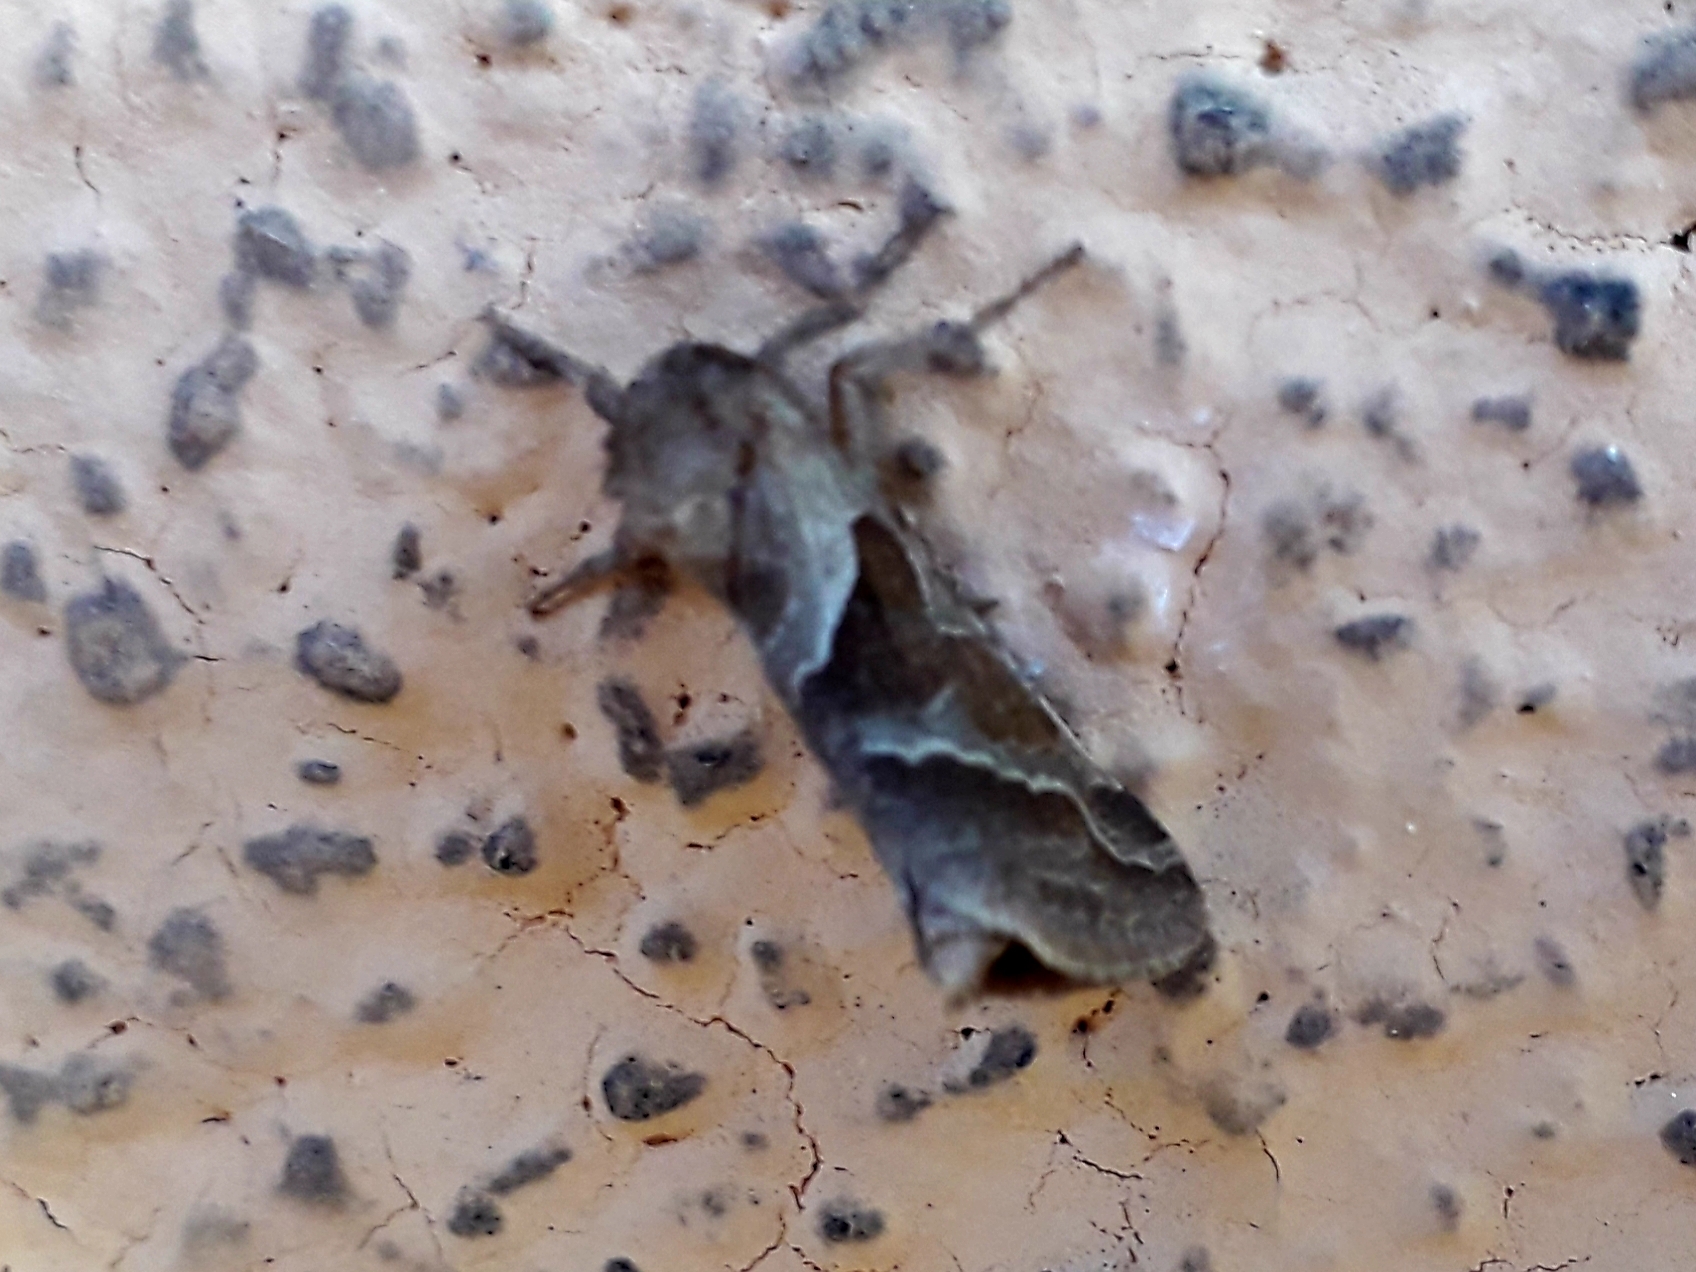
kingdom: Animalia
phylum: Arthropoda
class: Insecta
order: Lepidoptera
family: Hepialidae
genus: Triodia
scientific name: Triodia sylvina
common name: Orange swift
